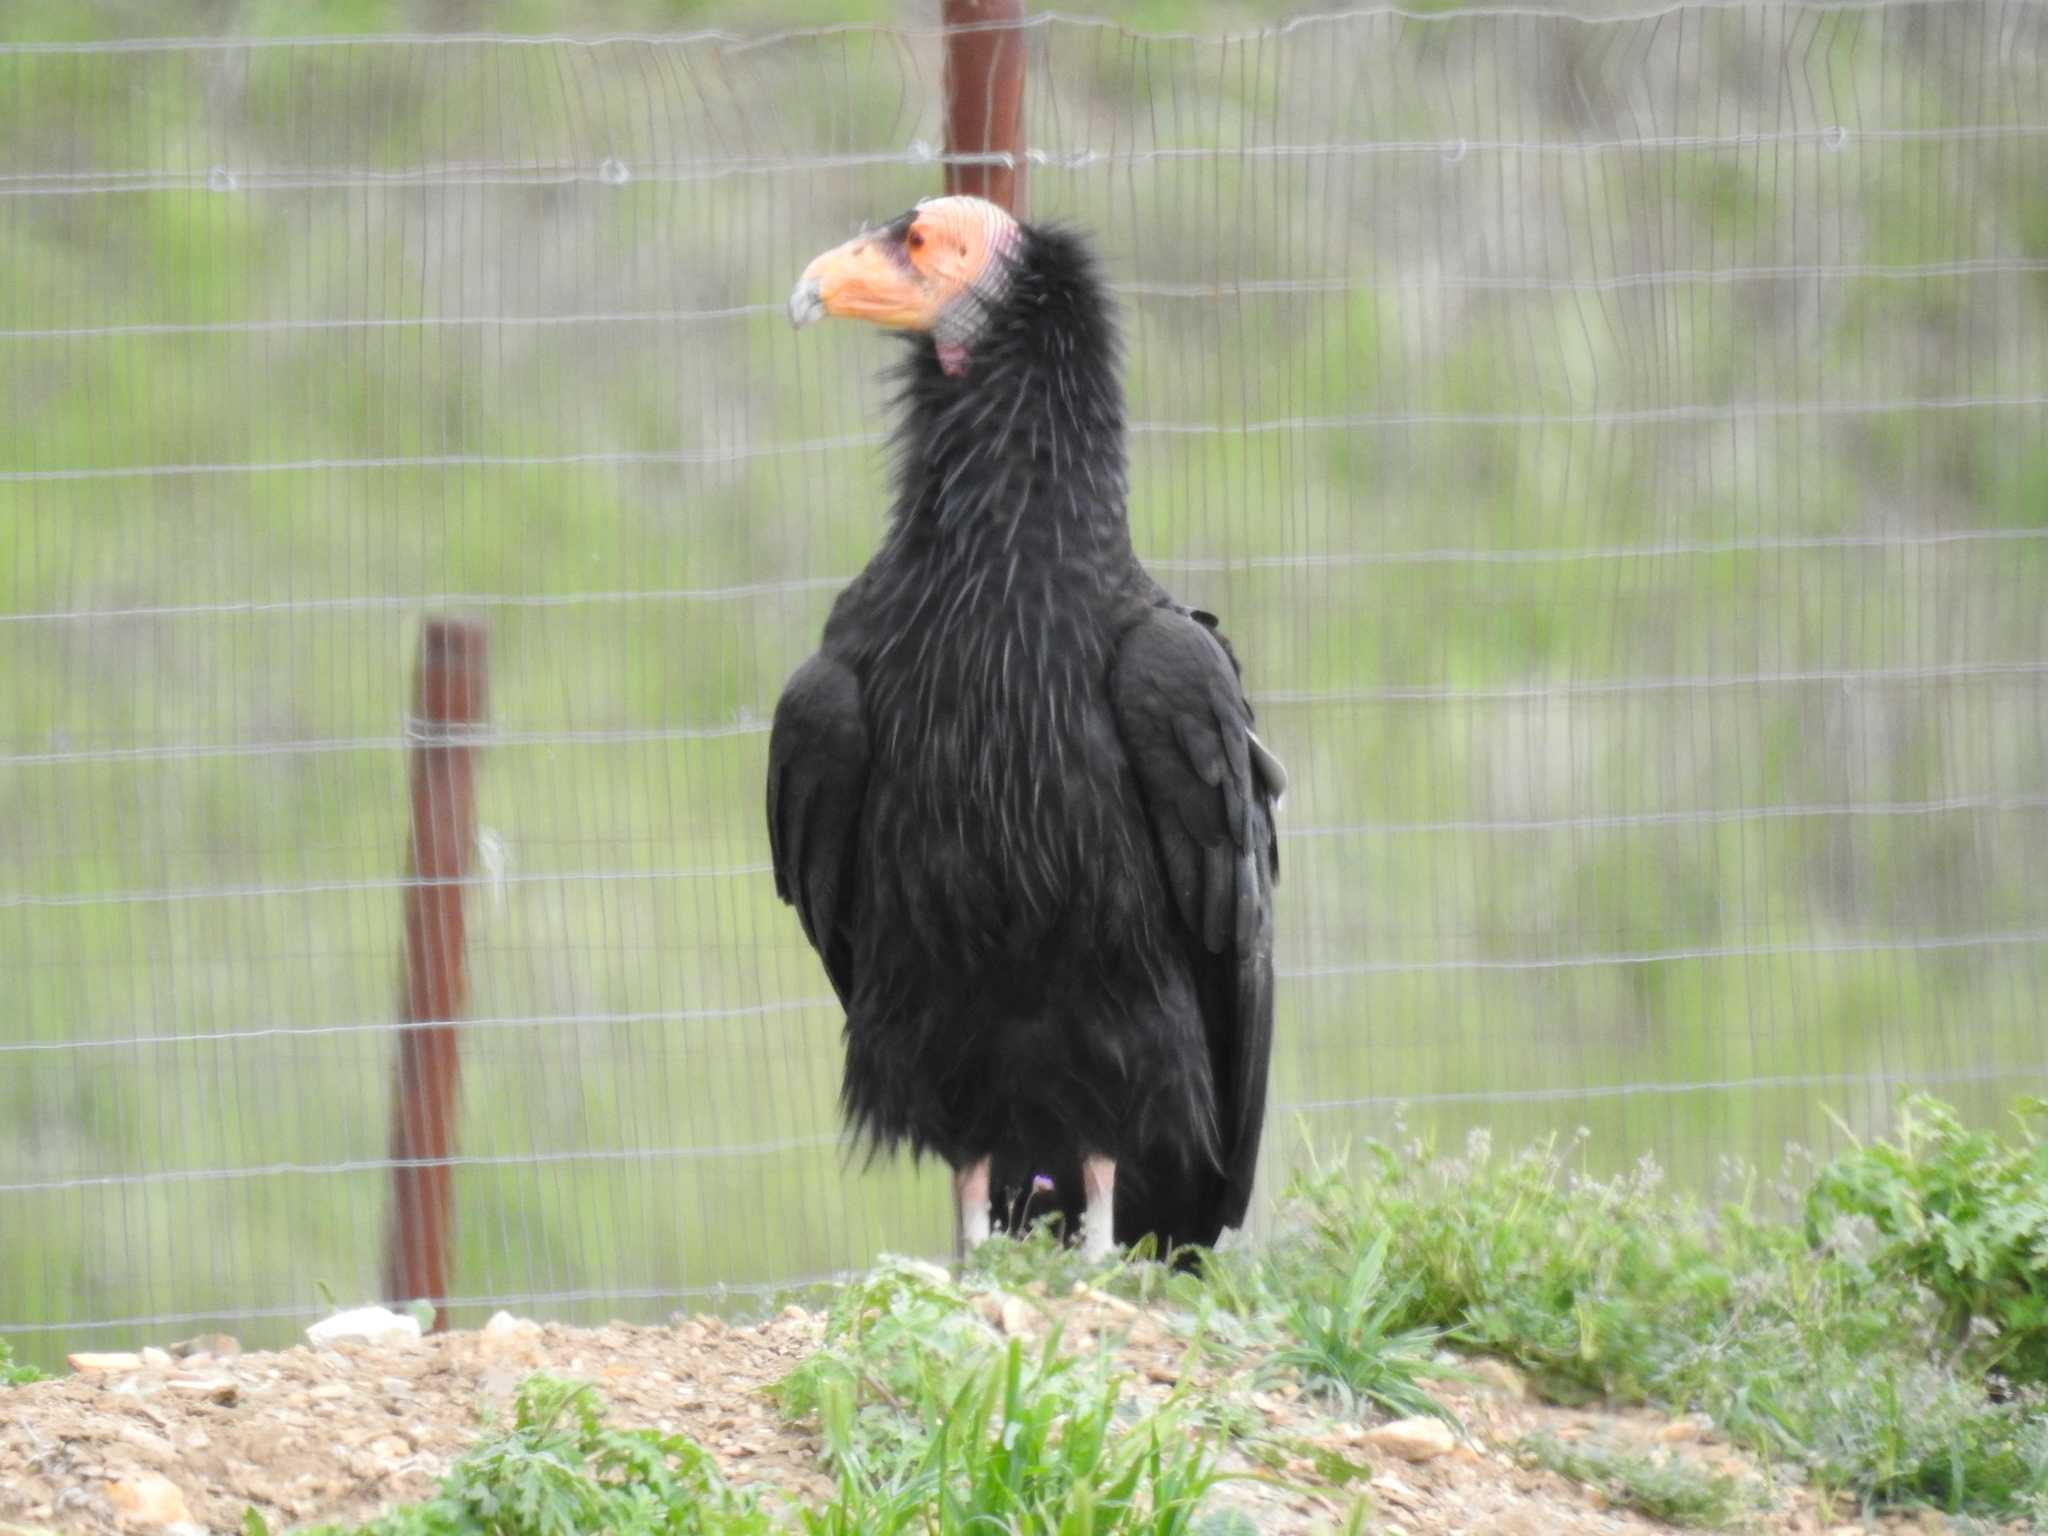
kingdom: Animalia
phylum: Chordata
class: Aves
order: Accipitriformes
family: Cathartidae
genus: Gymnogyps
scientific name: Gymnogyps californianus
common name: California condor
